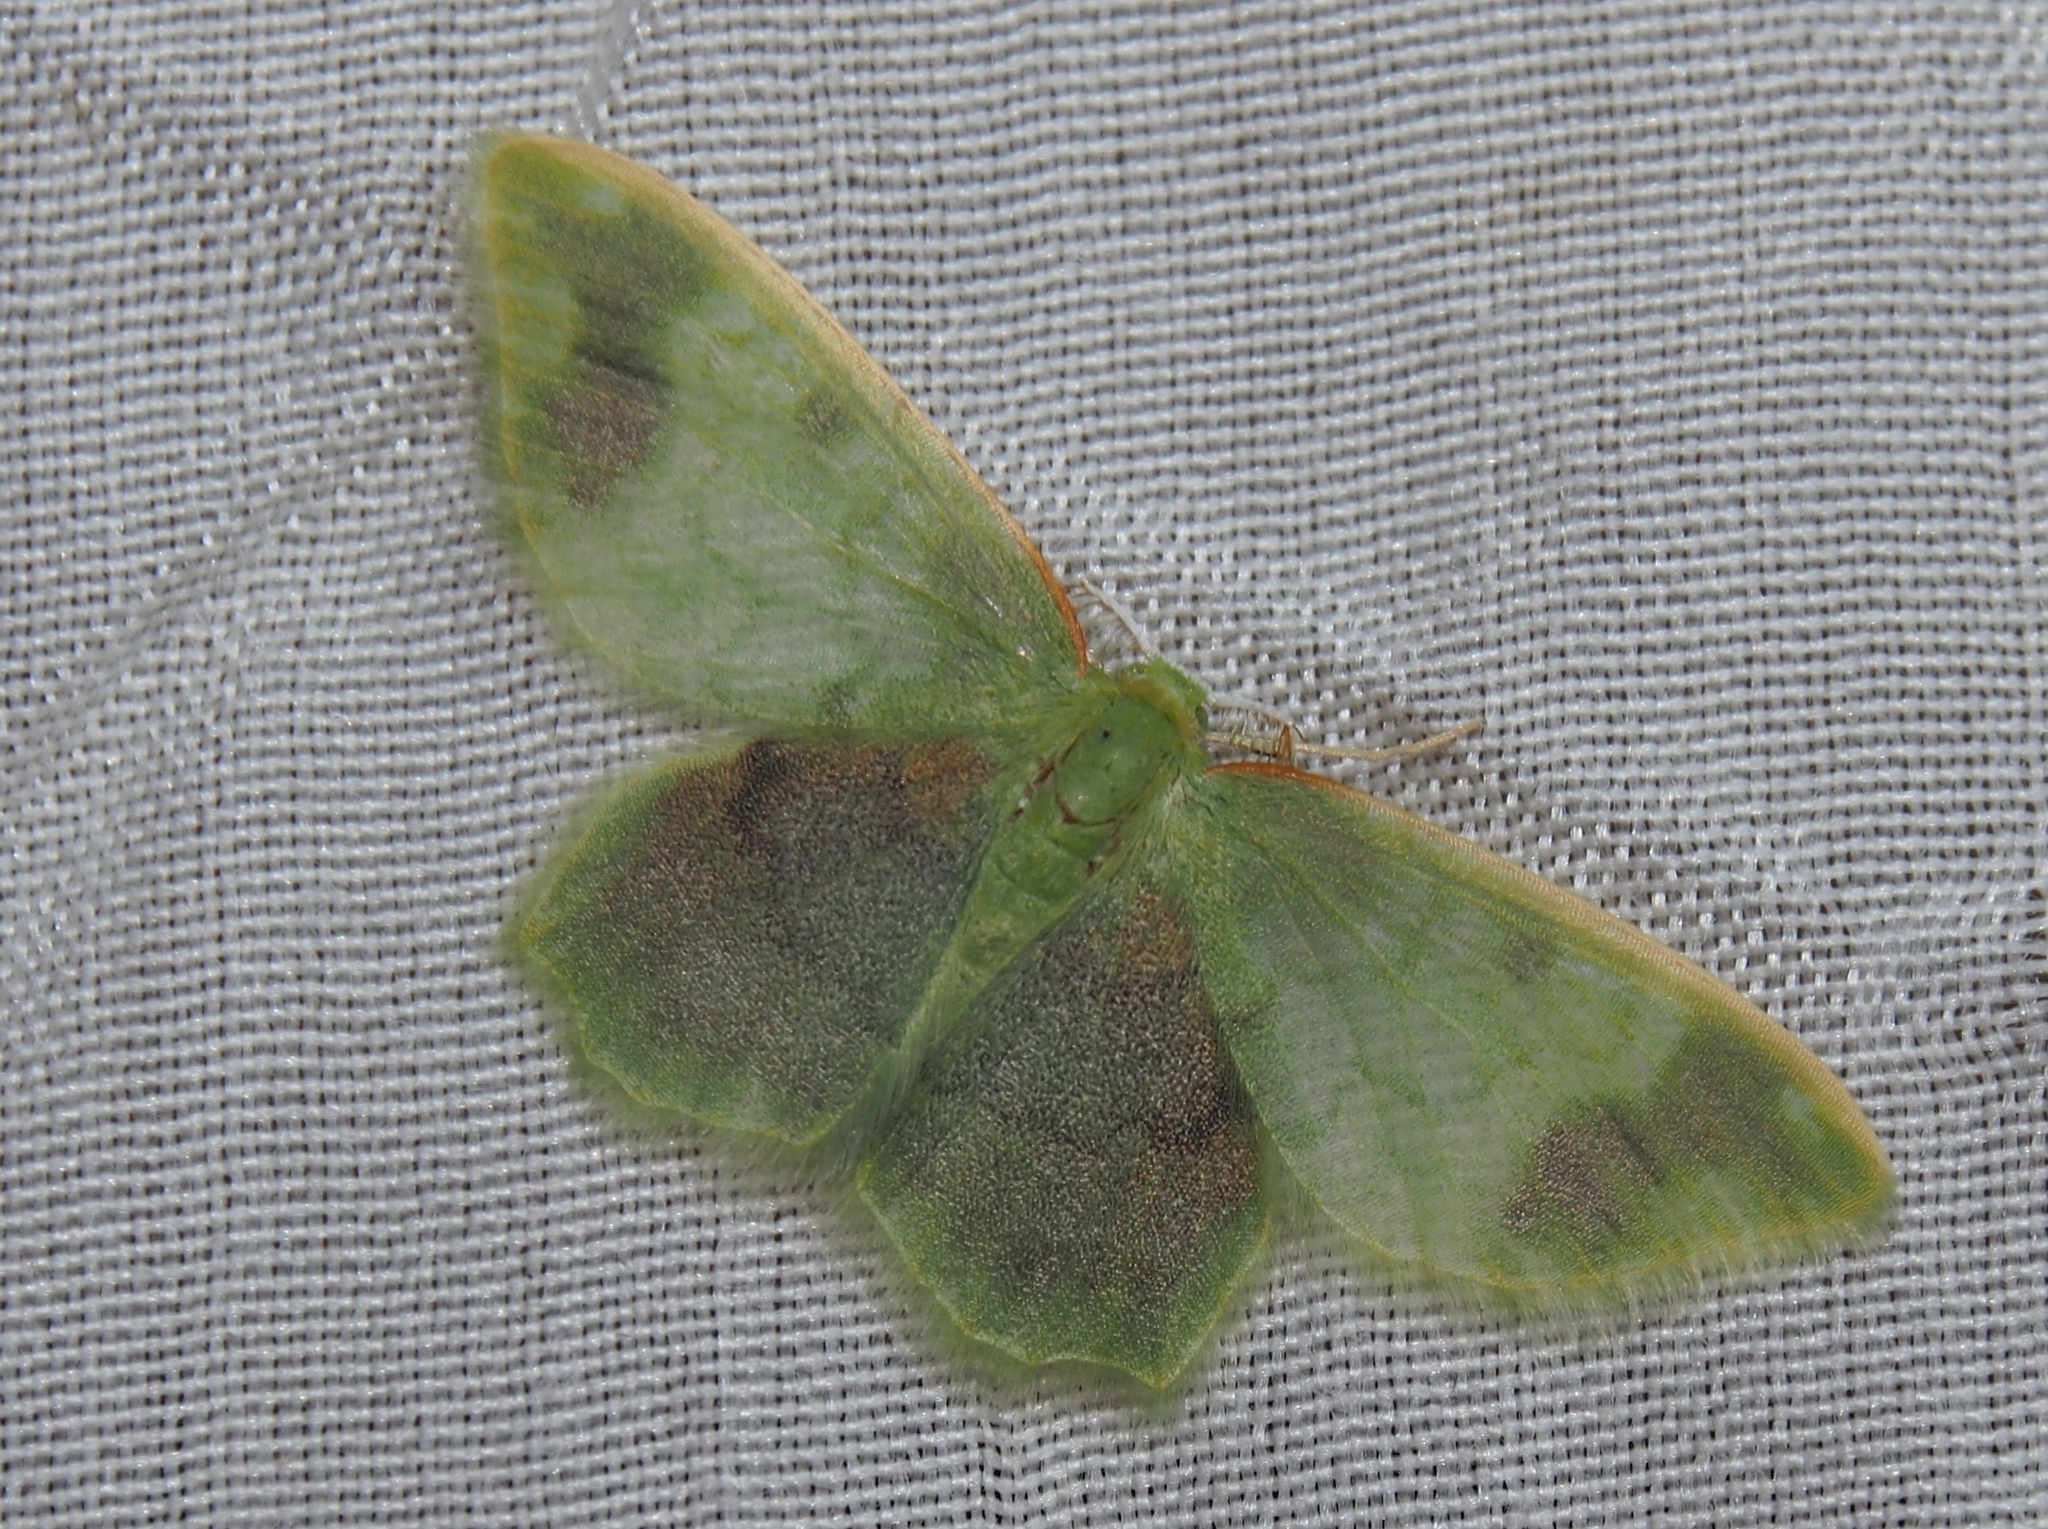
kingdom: Animalia
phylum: Arthropoda
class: Insecta
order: Lepidoptera
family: Geometridae
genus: Hydata
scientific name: Hydata povera
